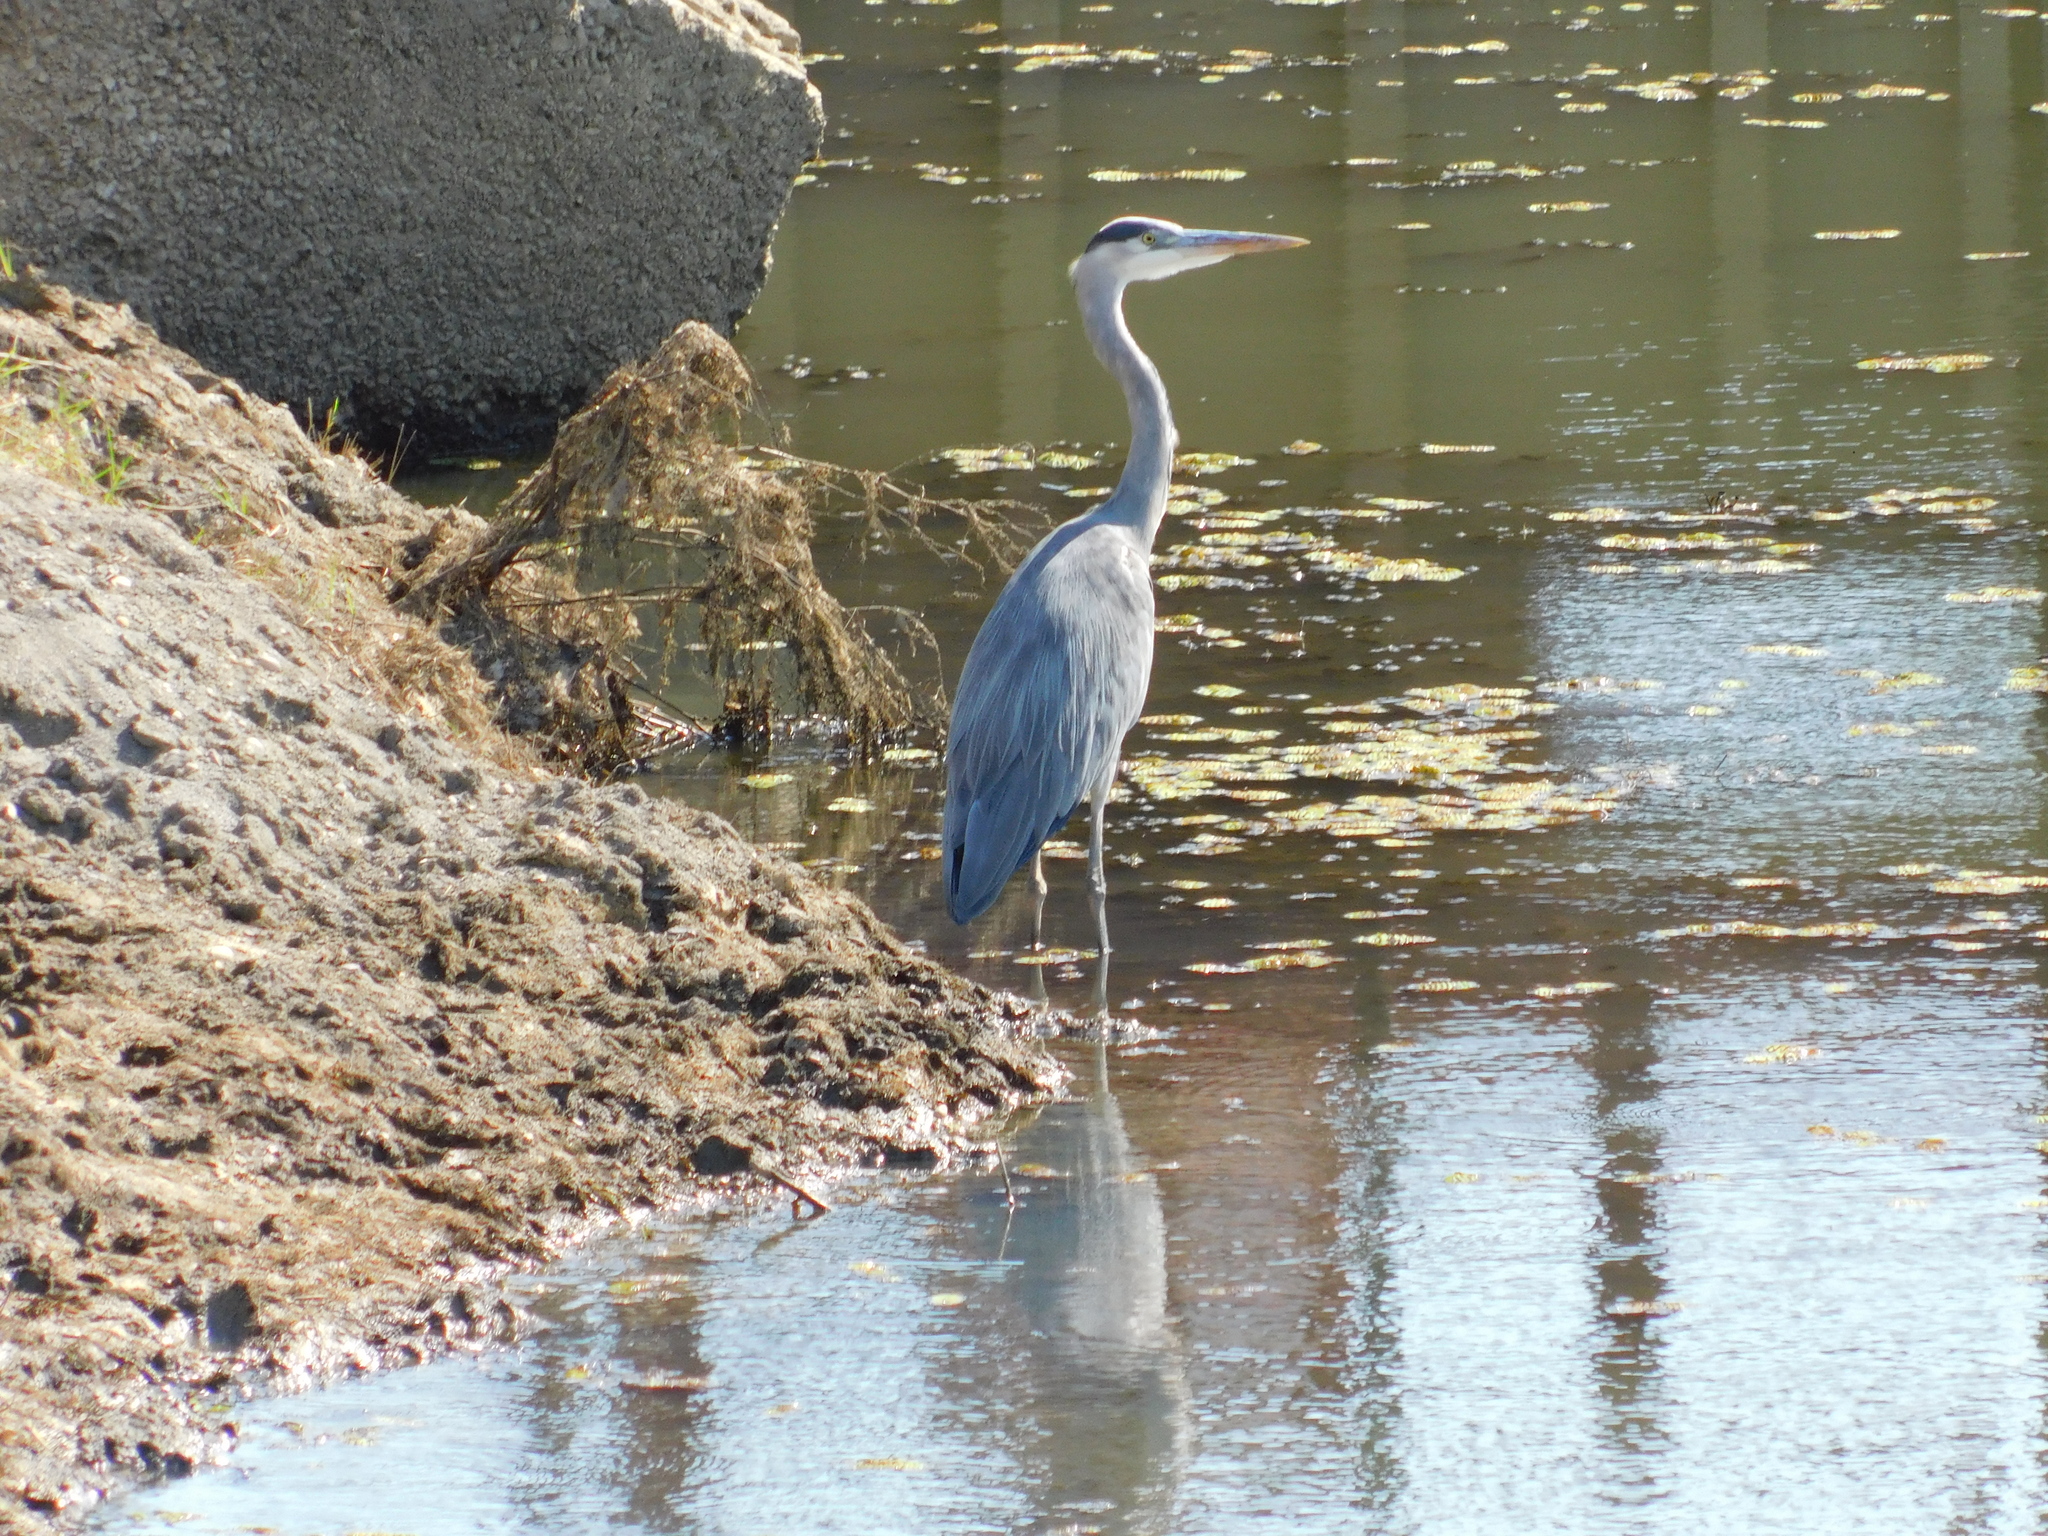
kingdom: Animalia
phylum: Chordata
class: Aves
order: Pelecaniformes
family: Ardeidae
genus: Ardea
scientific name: Ardea cinerea
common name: Grey heron
